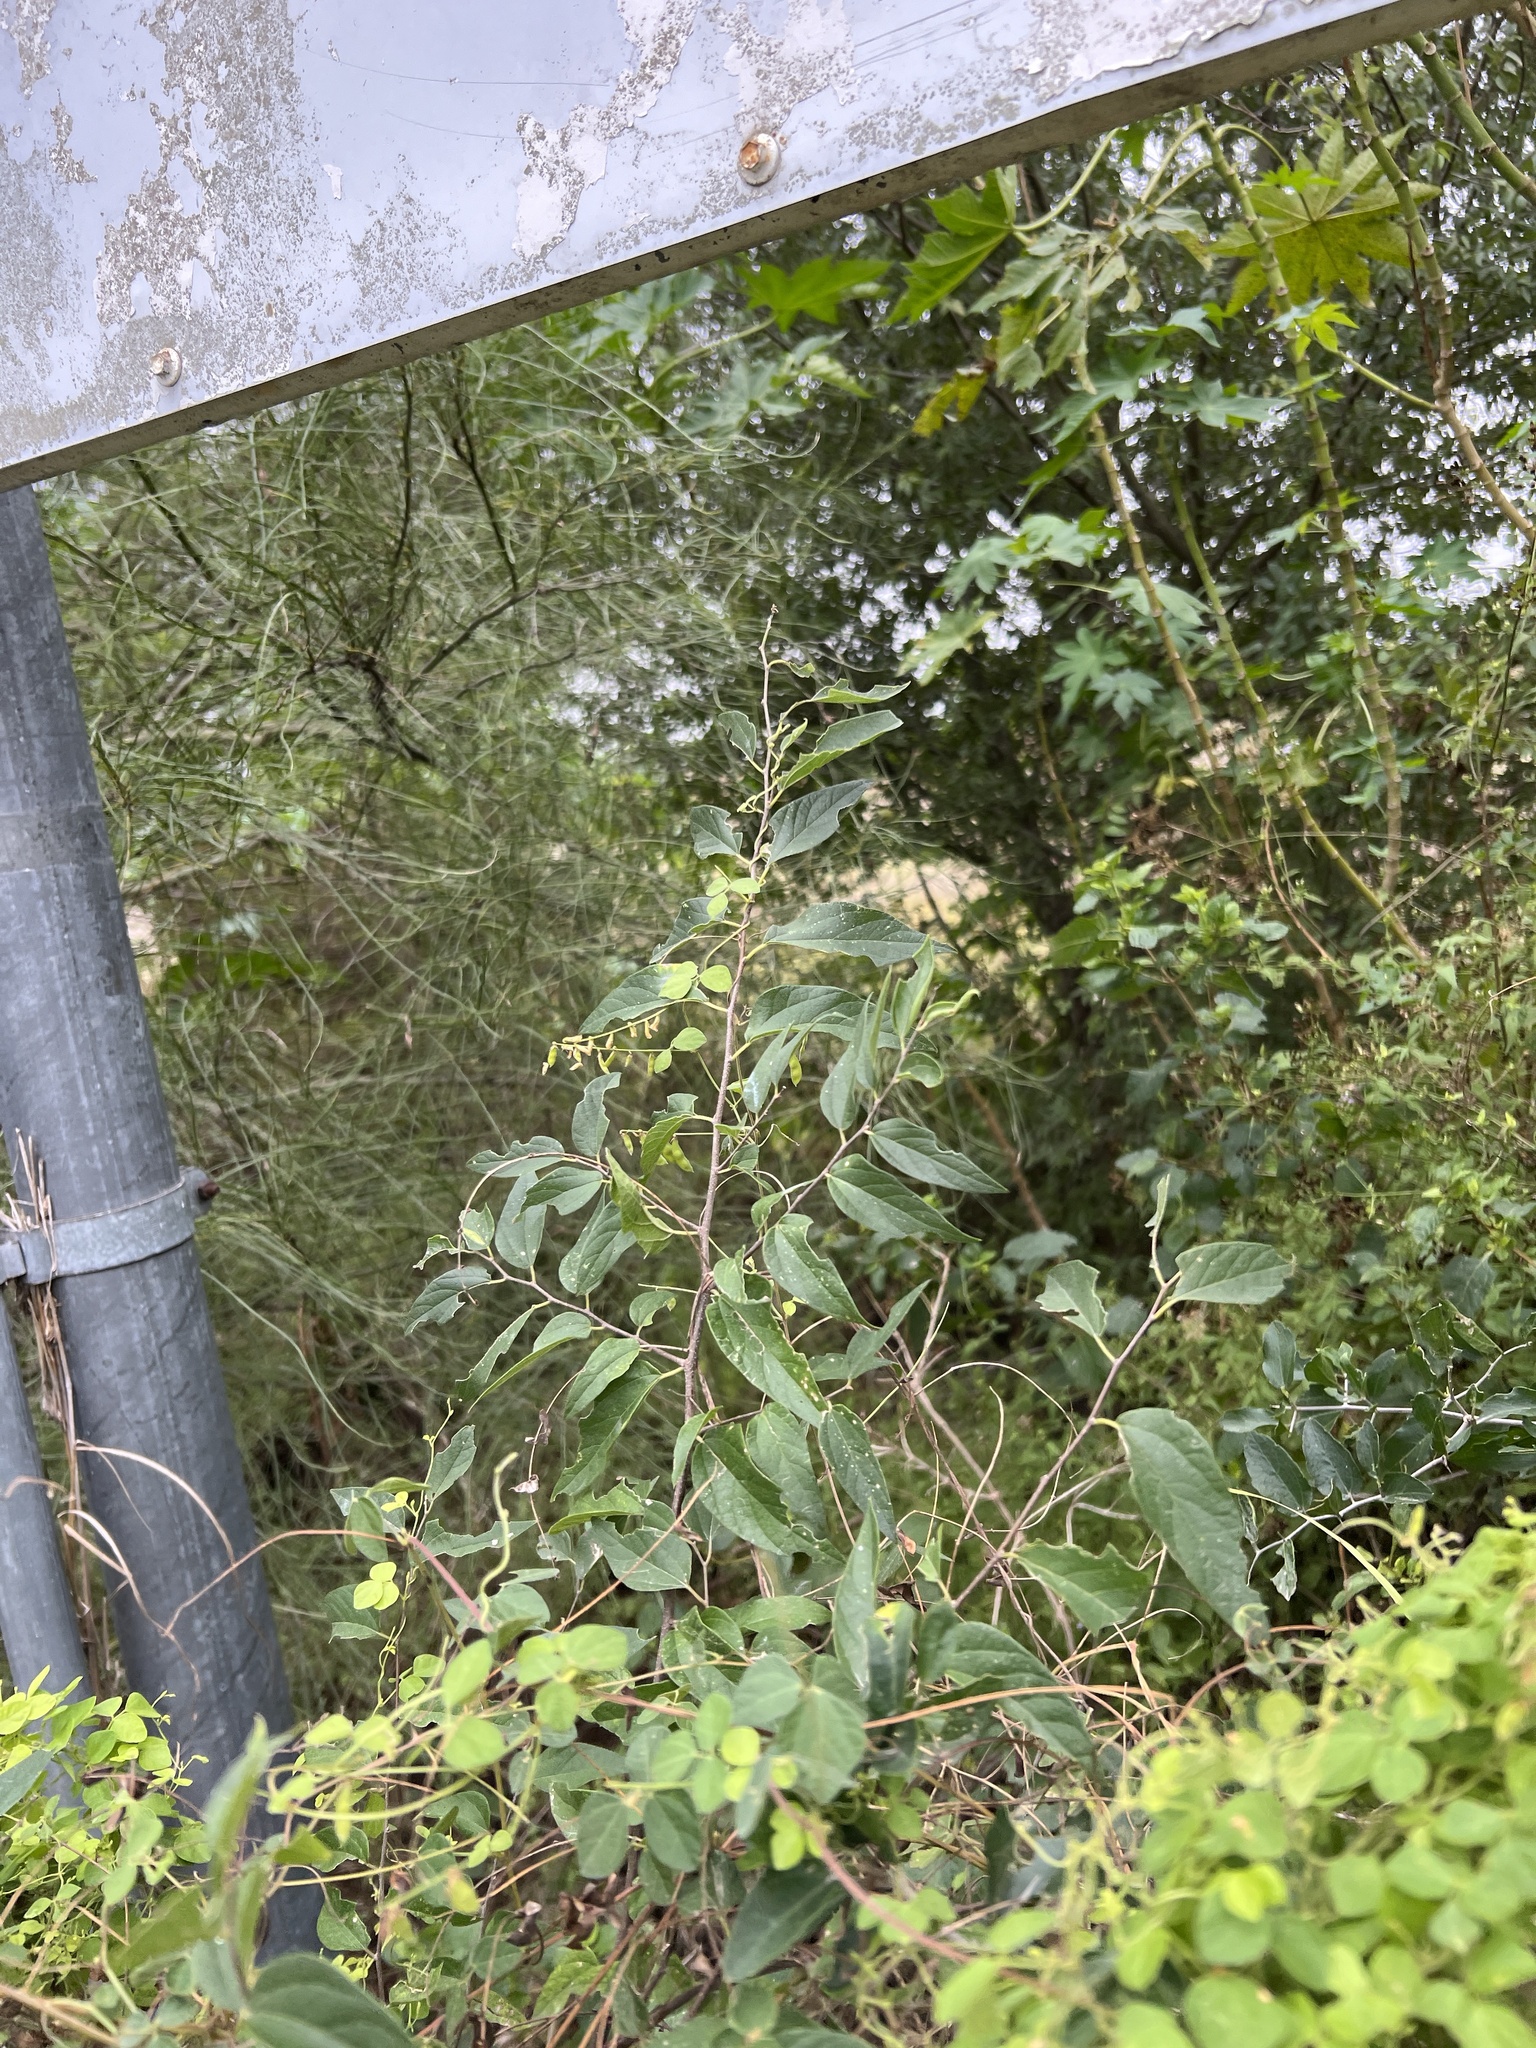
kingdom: Plantae
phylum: Tracheophyta
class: Magnoliopsida
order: Rosales
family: Cannabaceae
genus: Celtis
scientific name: Celtis laevigata
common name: Sugarberry
